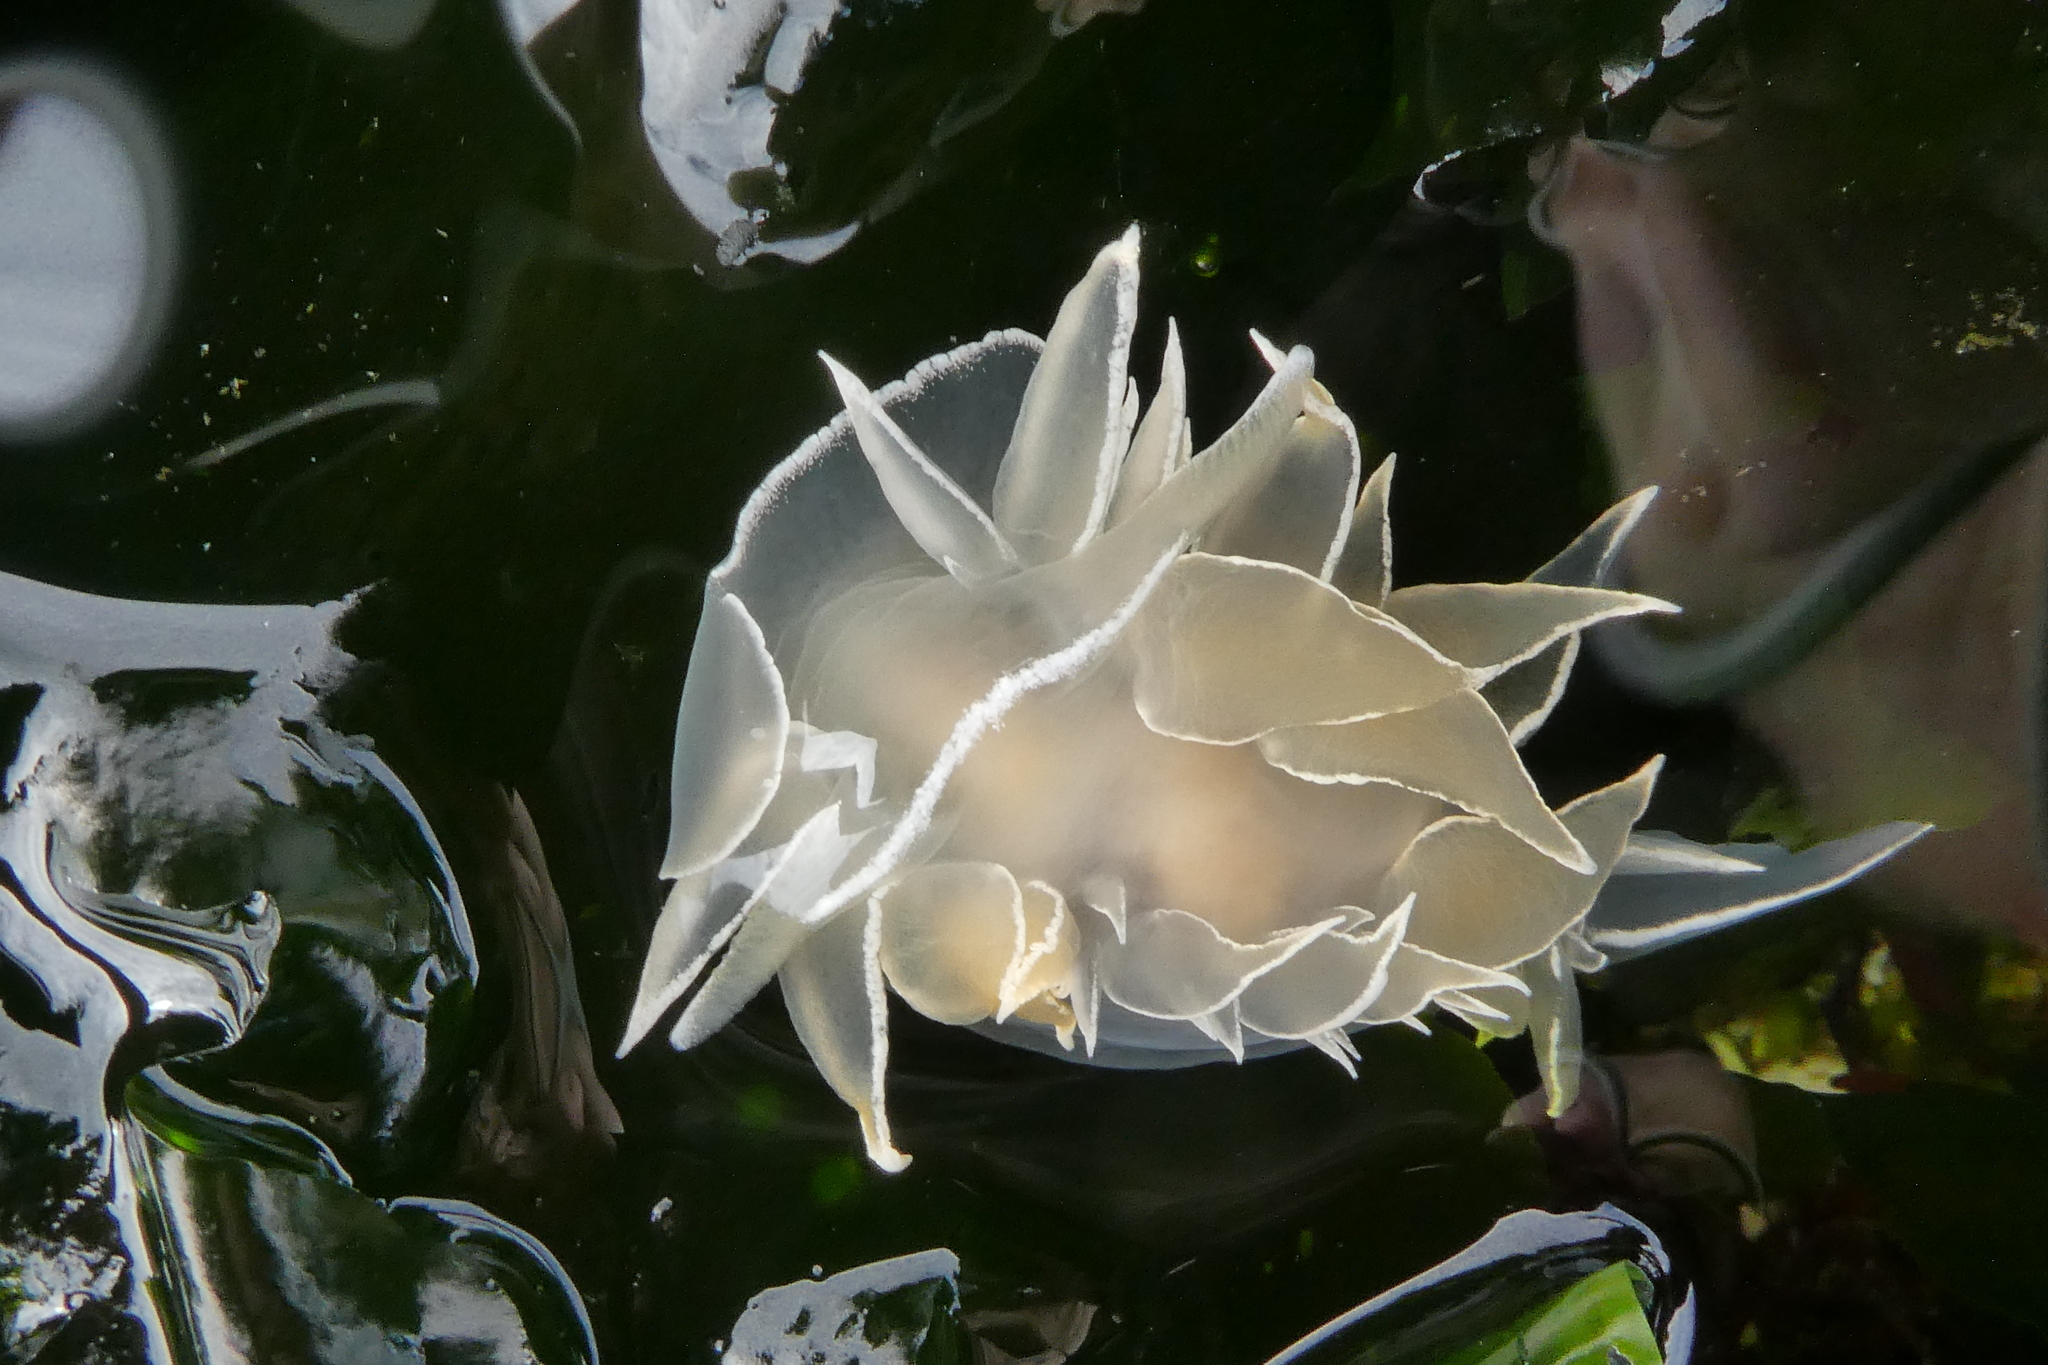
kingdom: Animalia
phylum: Mollusca
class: Gastropoda
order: Nudibranchia
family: Dironidae
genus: Dirona
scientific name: Dirona albolineata
